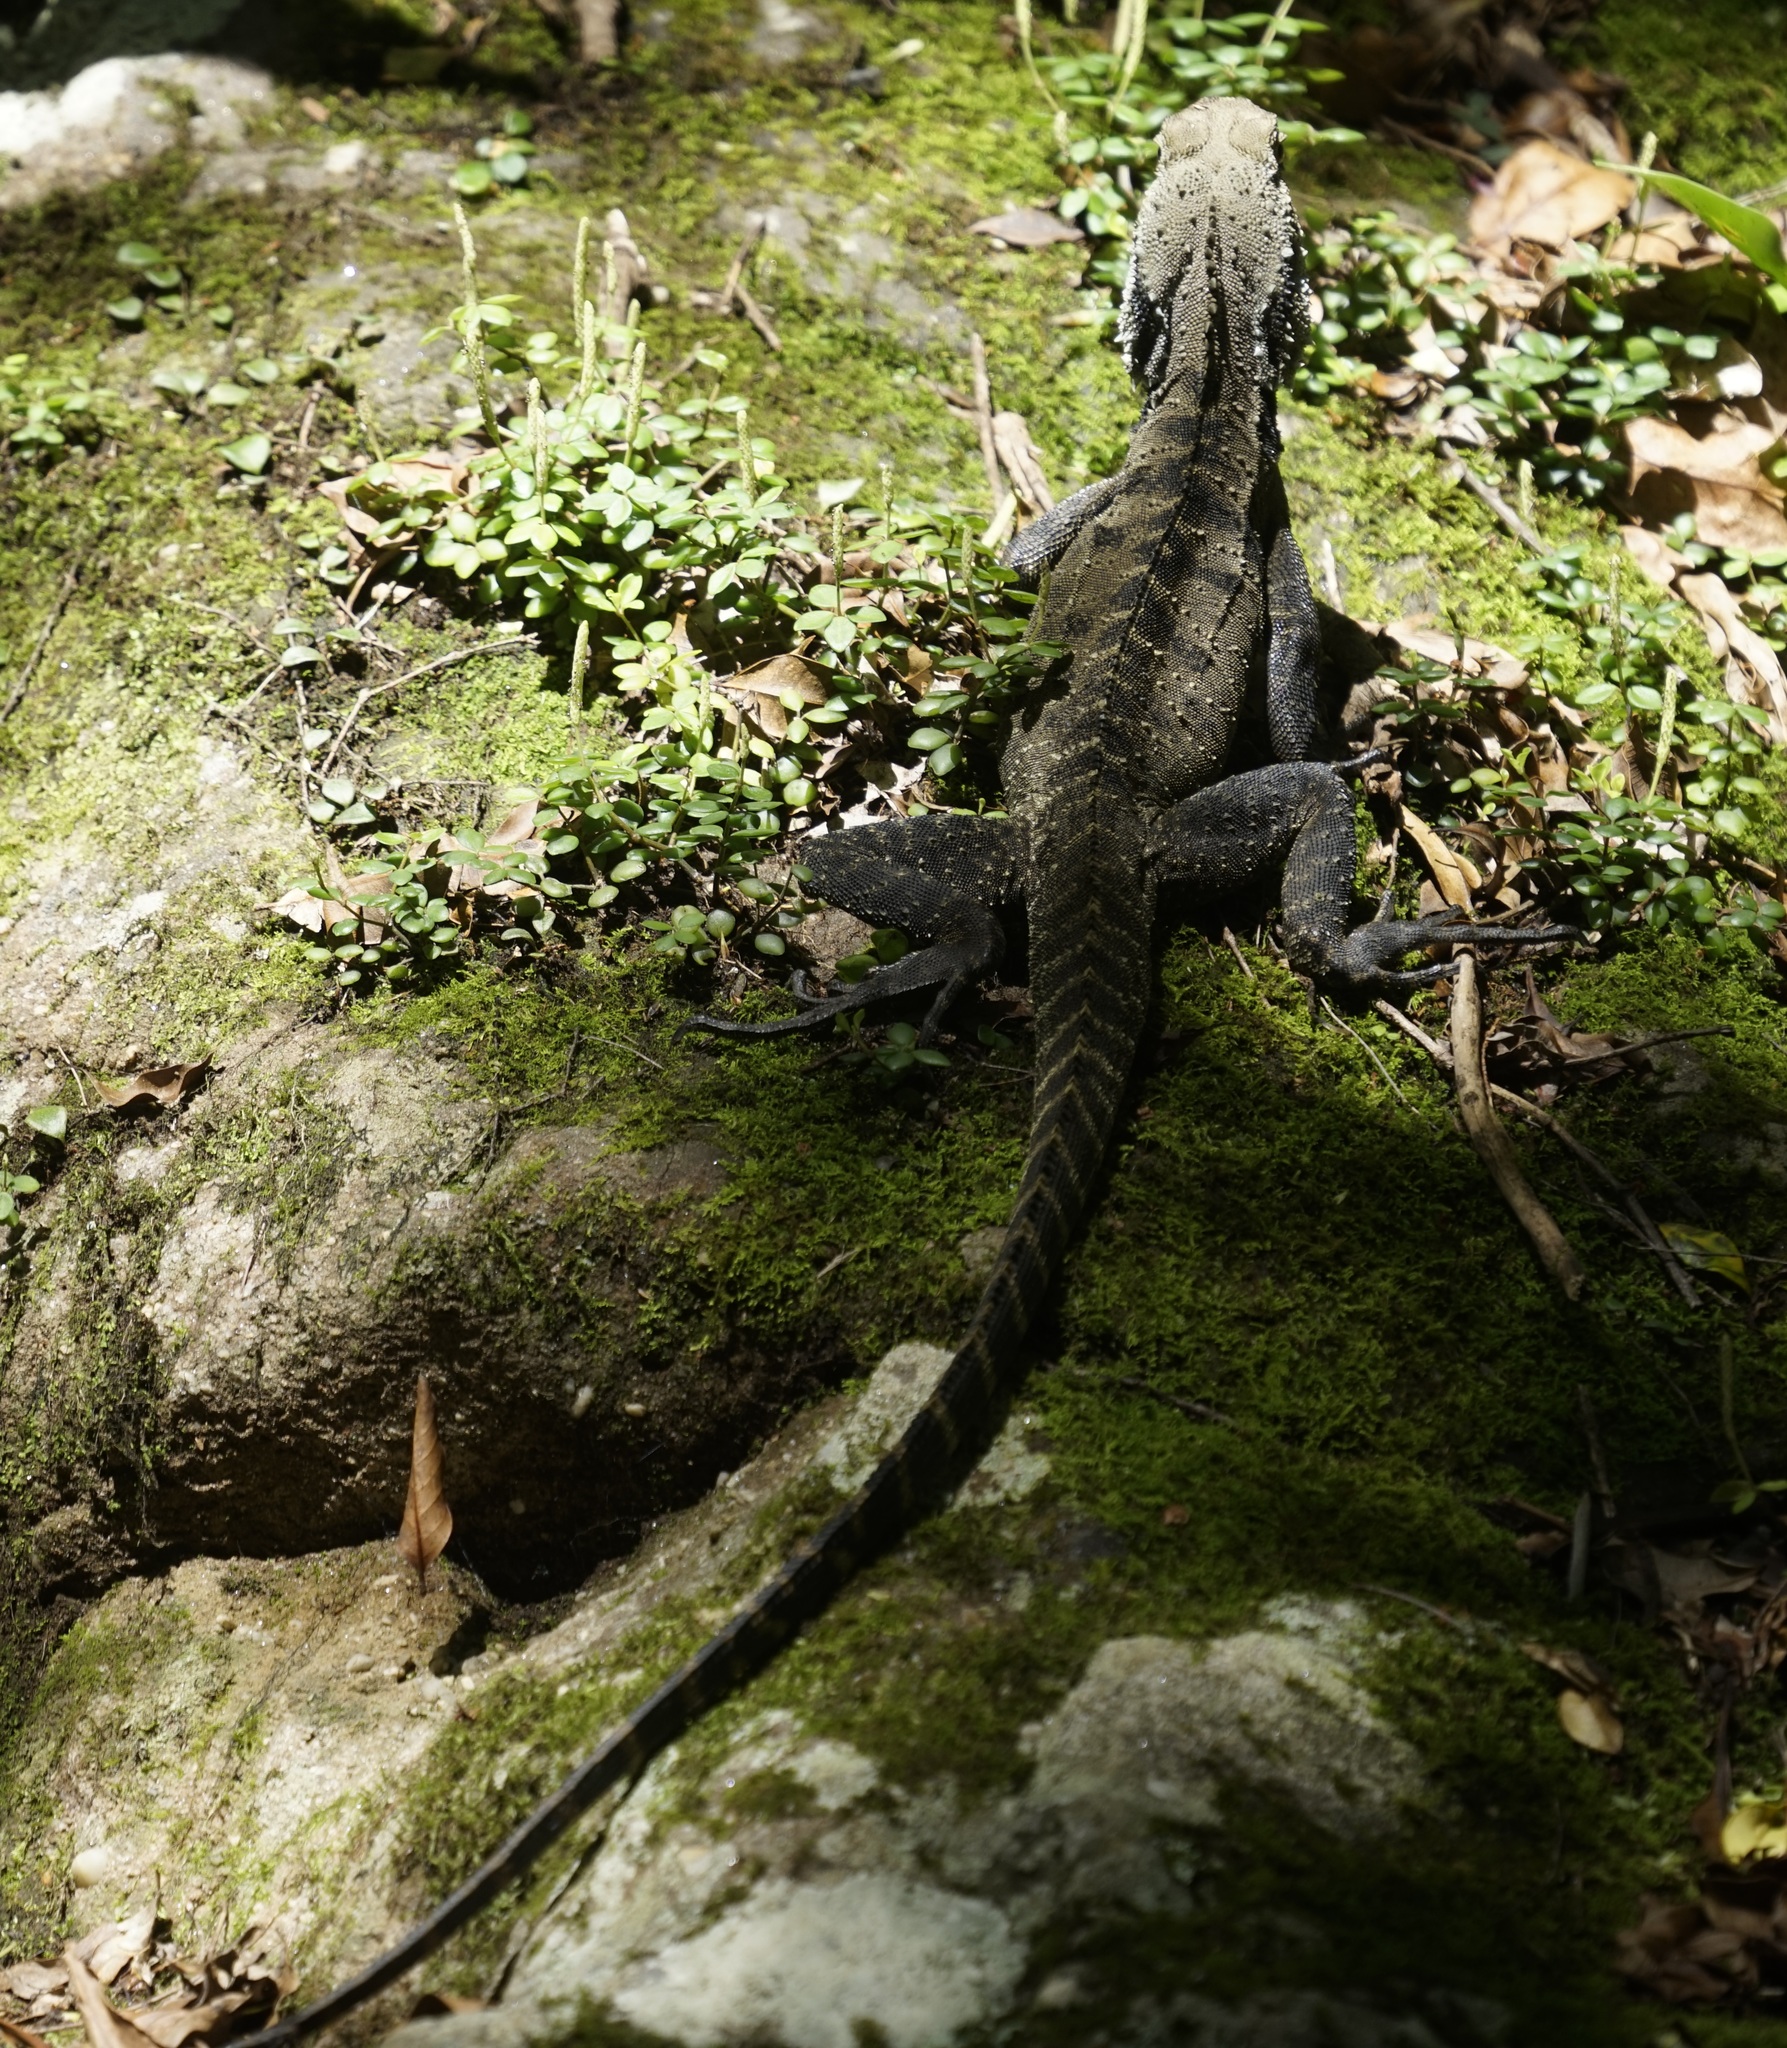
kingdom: Animalia
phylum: Chordata
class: Squamata
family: Agamidae
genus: Intellagama
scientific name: Intellagama lesueurii
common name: Eastern water dragon
